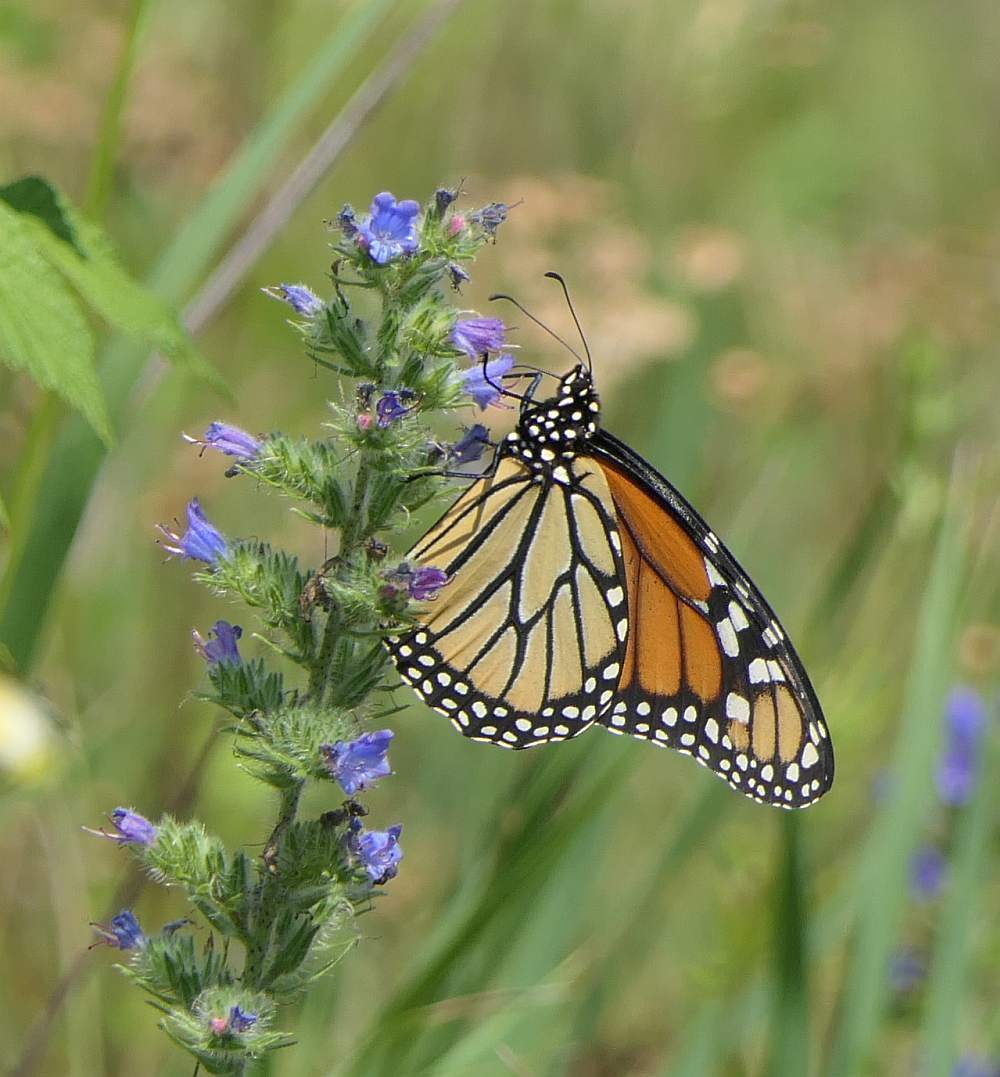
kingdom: Animalia
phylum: Arthropoda
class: Insecta
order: Lepidoptera
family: Nymphalidae
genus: Danaus
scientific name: Danaus plexippus
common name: Monarch
